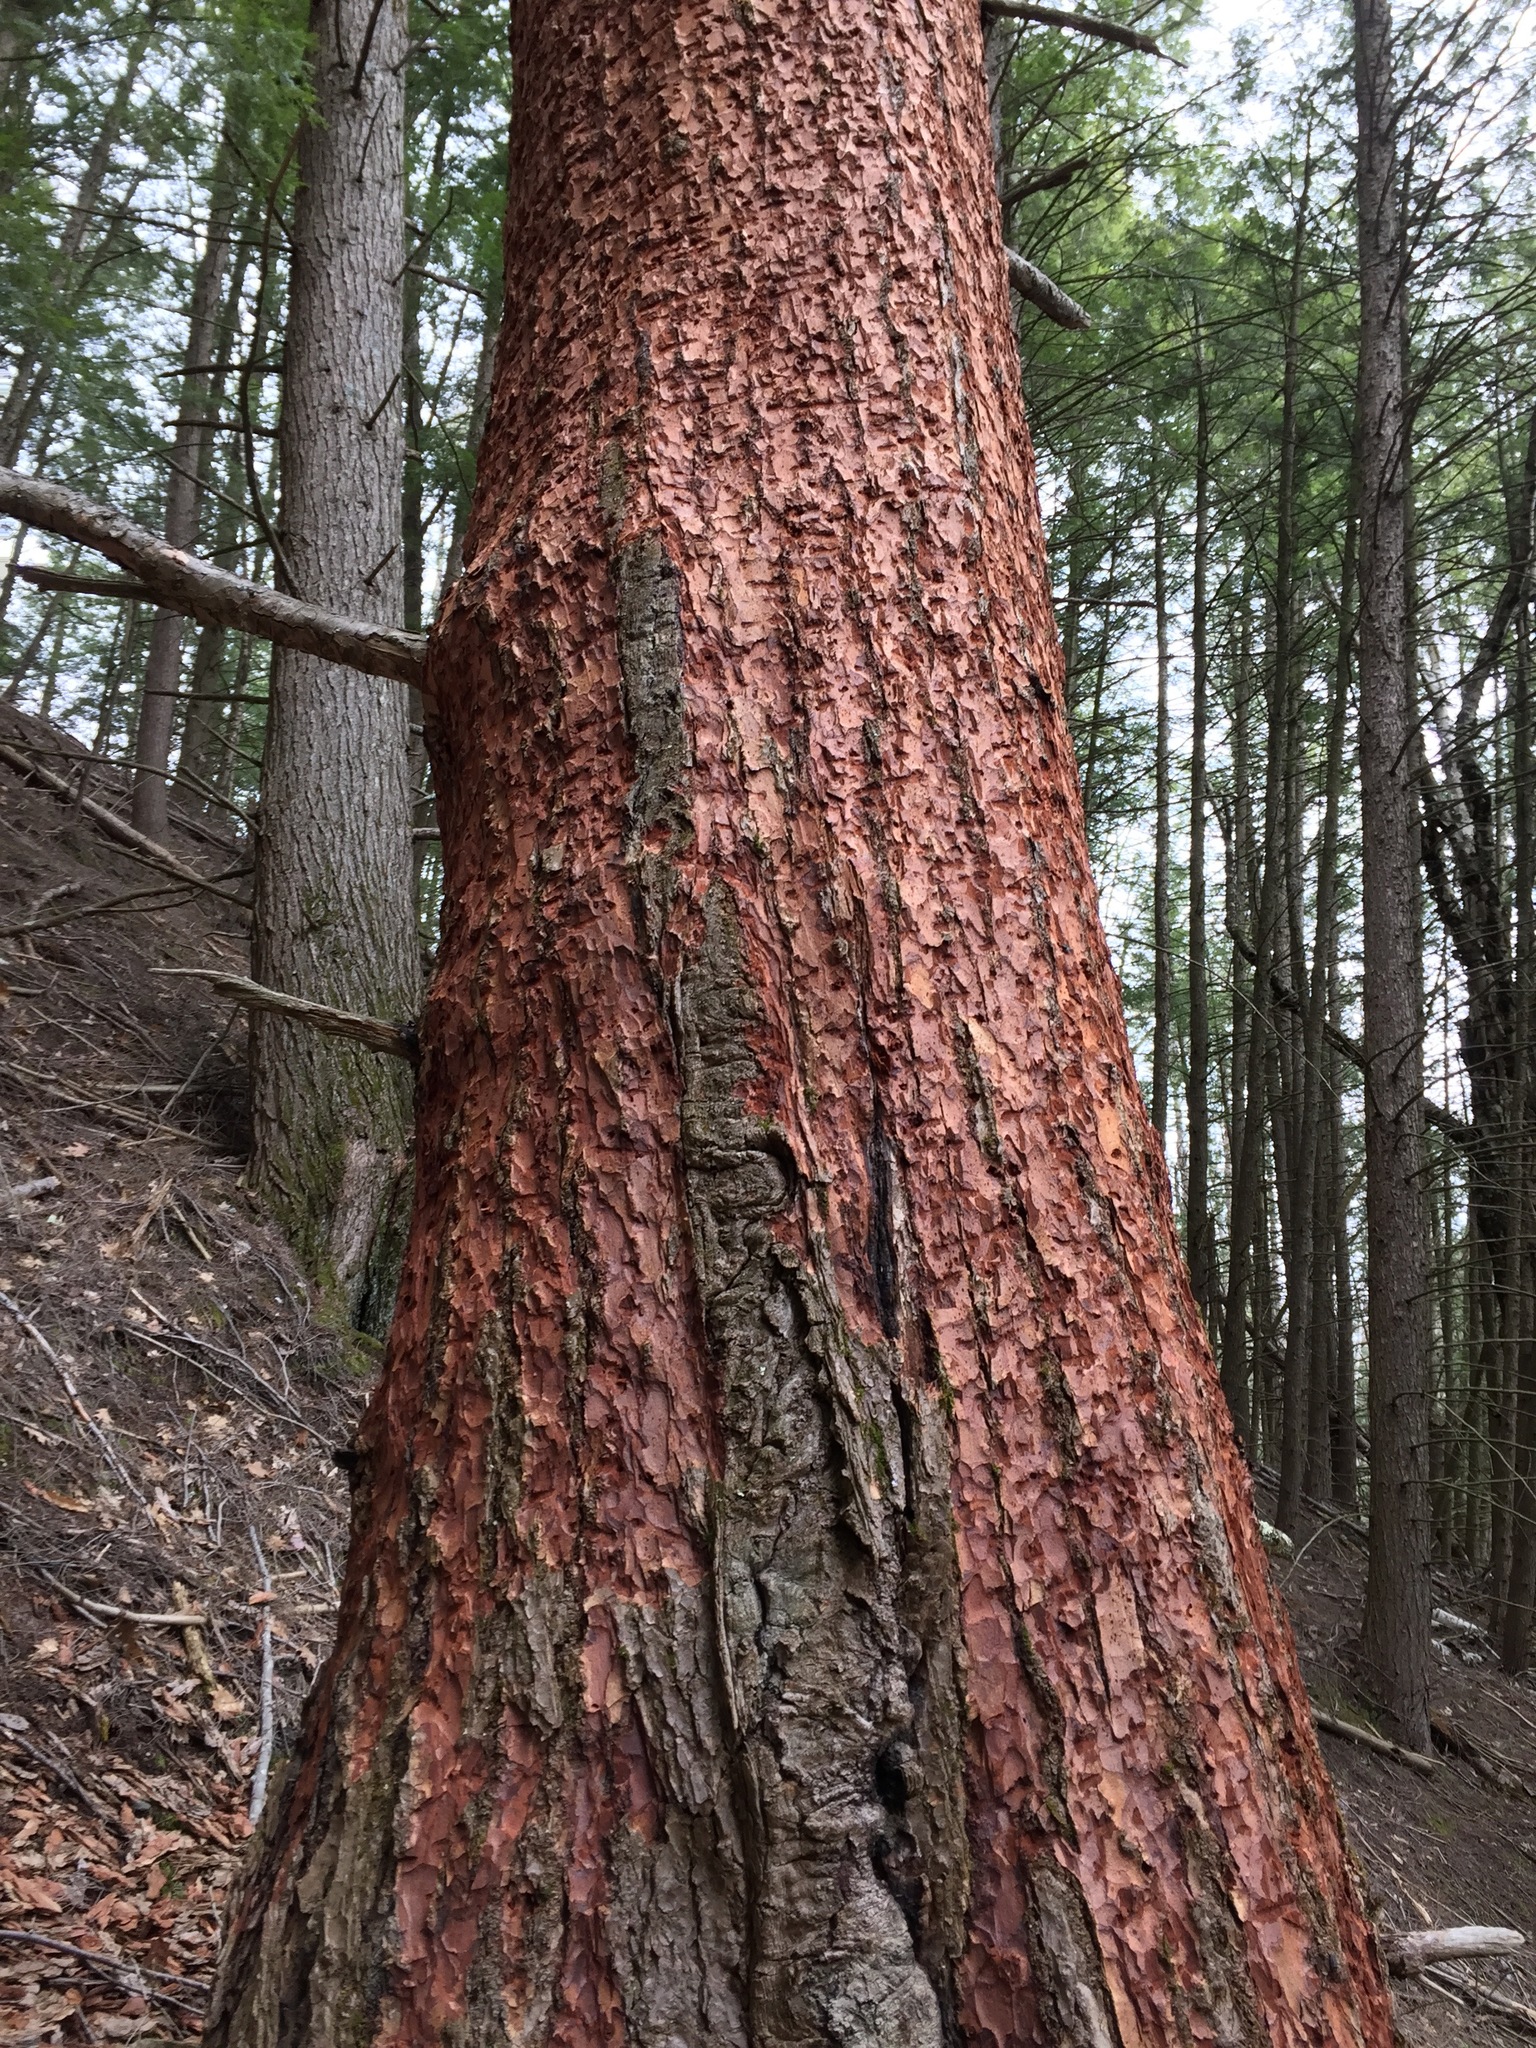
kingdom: Plantae
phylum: Tracheophyta
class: Pinopsida
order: Pinales
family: Pinaceae
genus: Tsuga
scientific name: Tsuga canadensis
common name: Eastern hemlock
